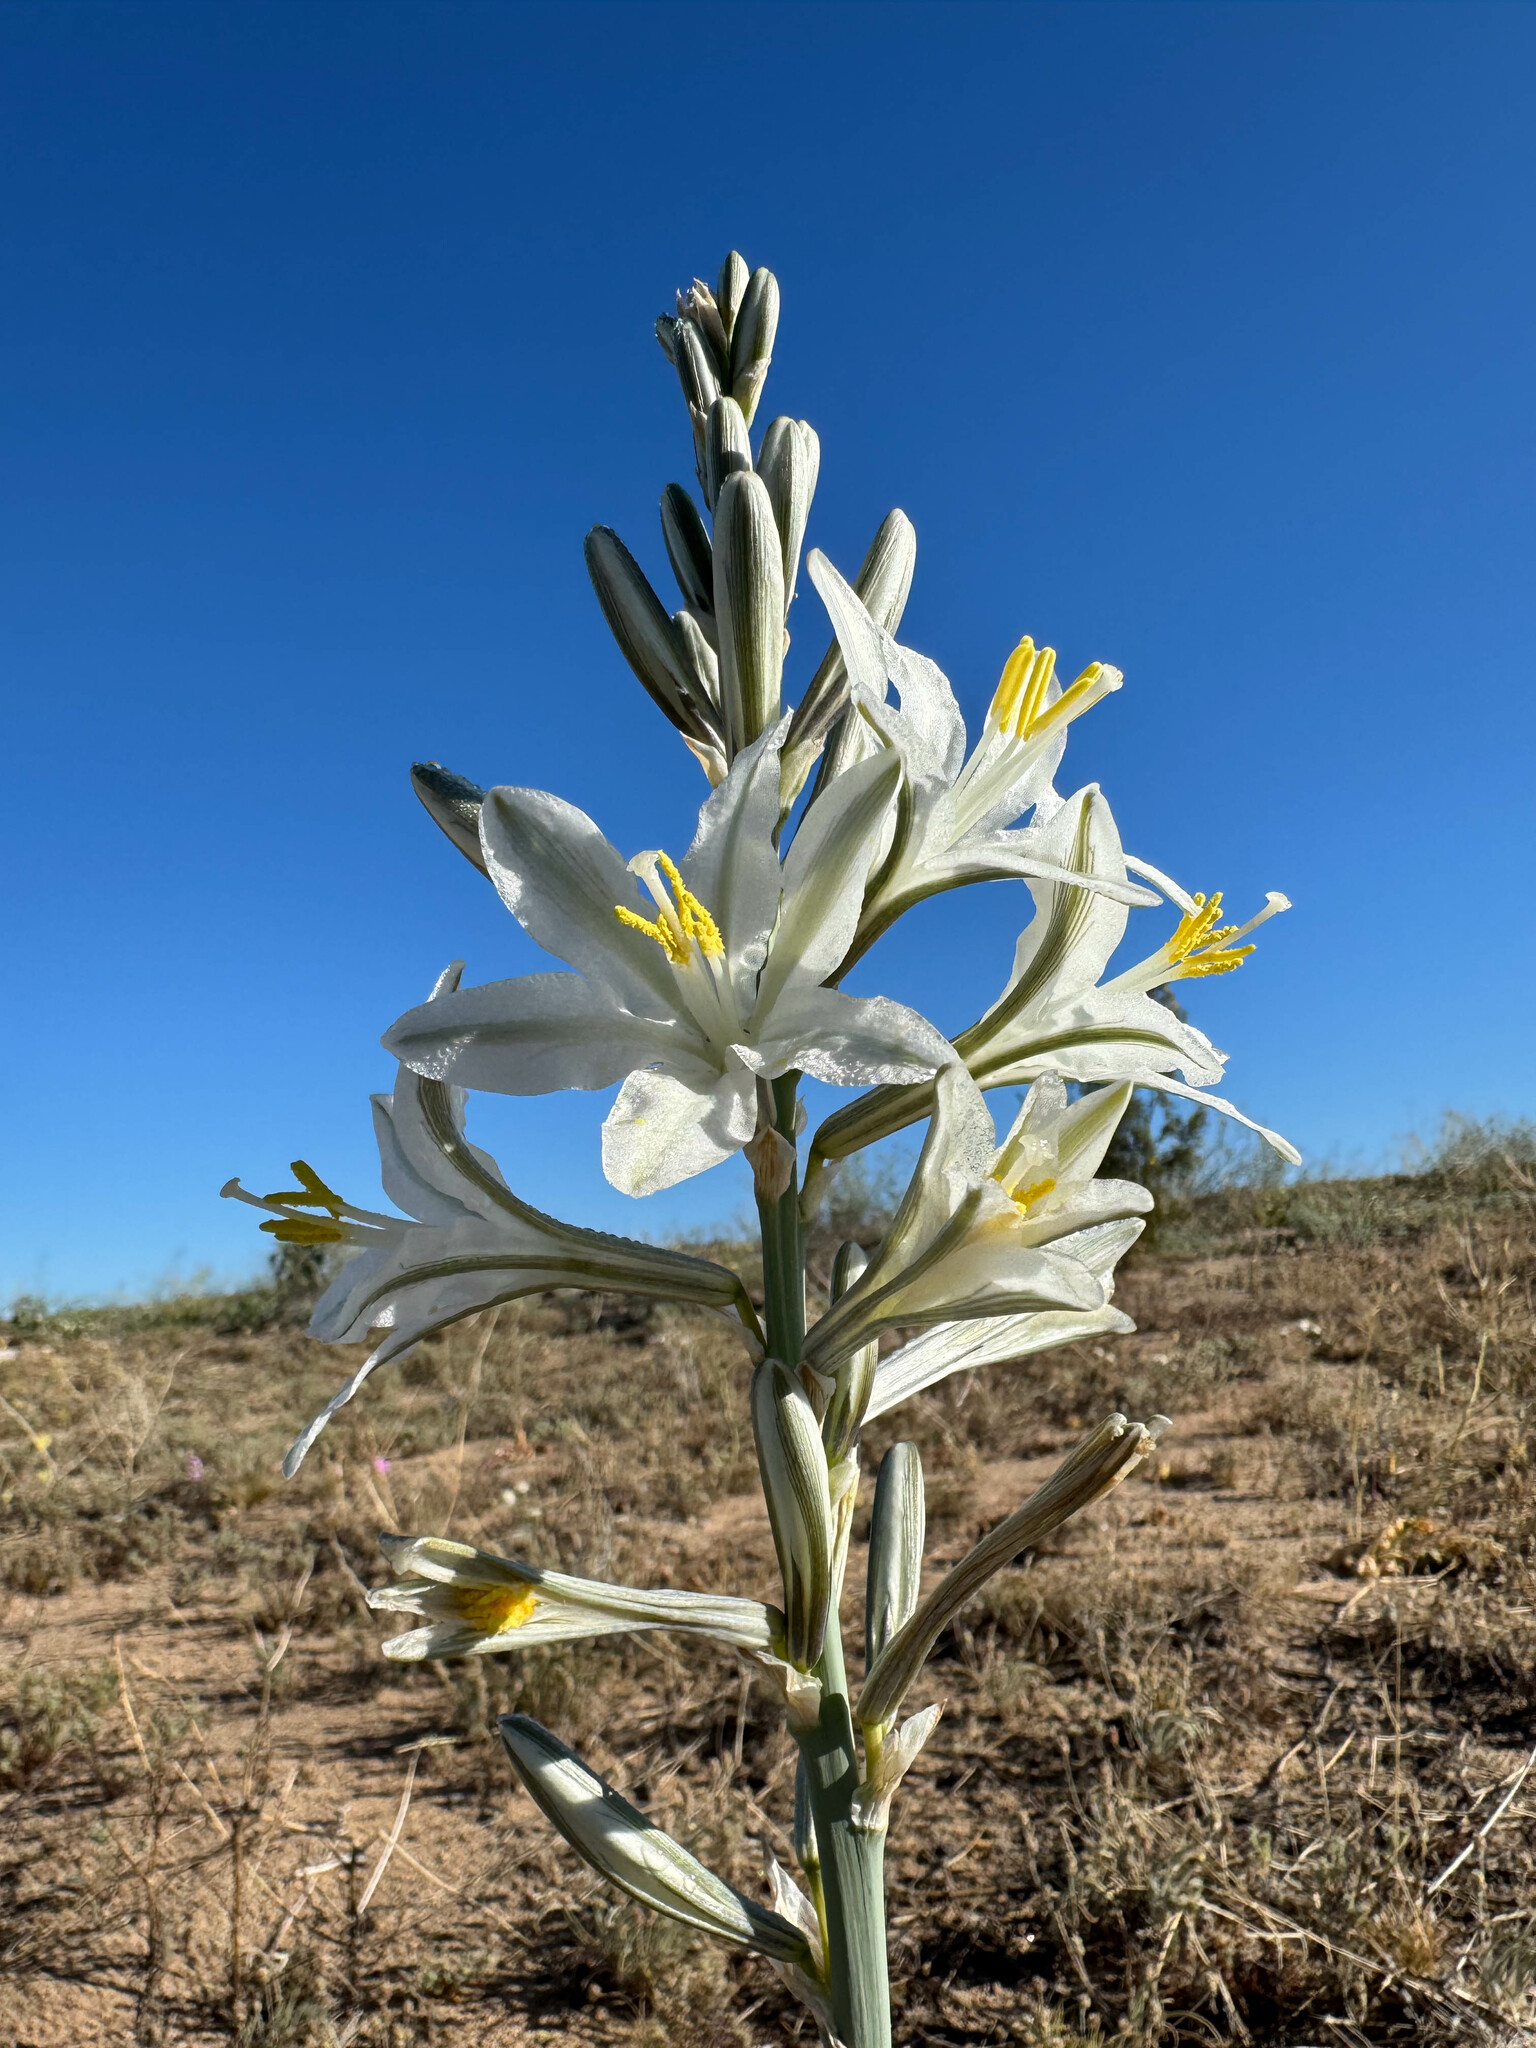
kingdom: Plantae
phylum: Tracheophyta
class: Liliopsida
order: Asparagales
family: Asparagaceae
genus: Hesperocallis
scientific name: Hesperocallis undulata
